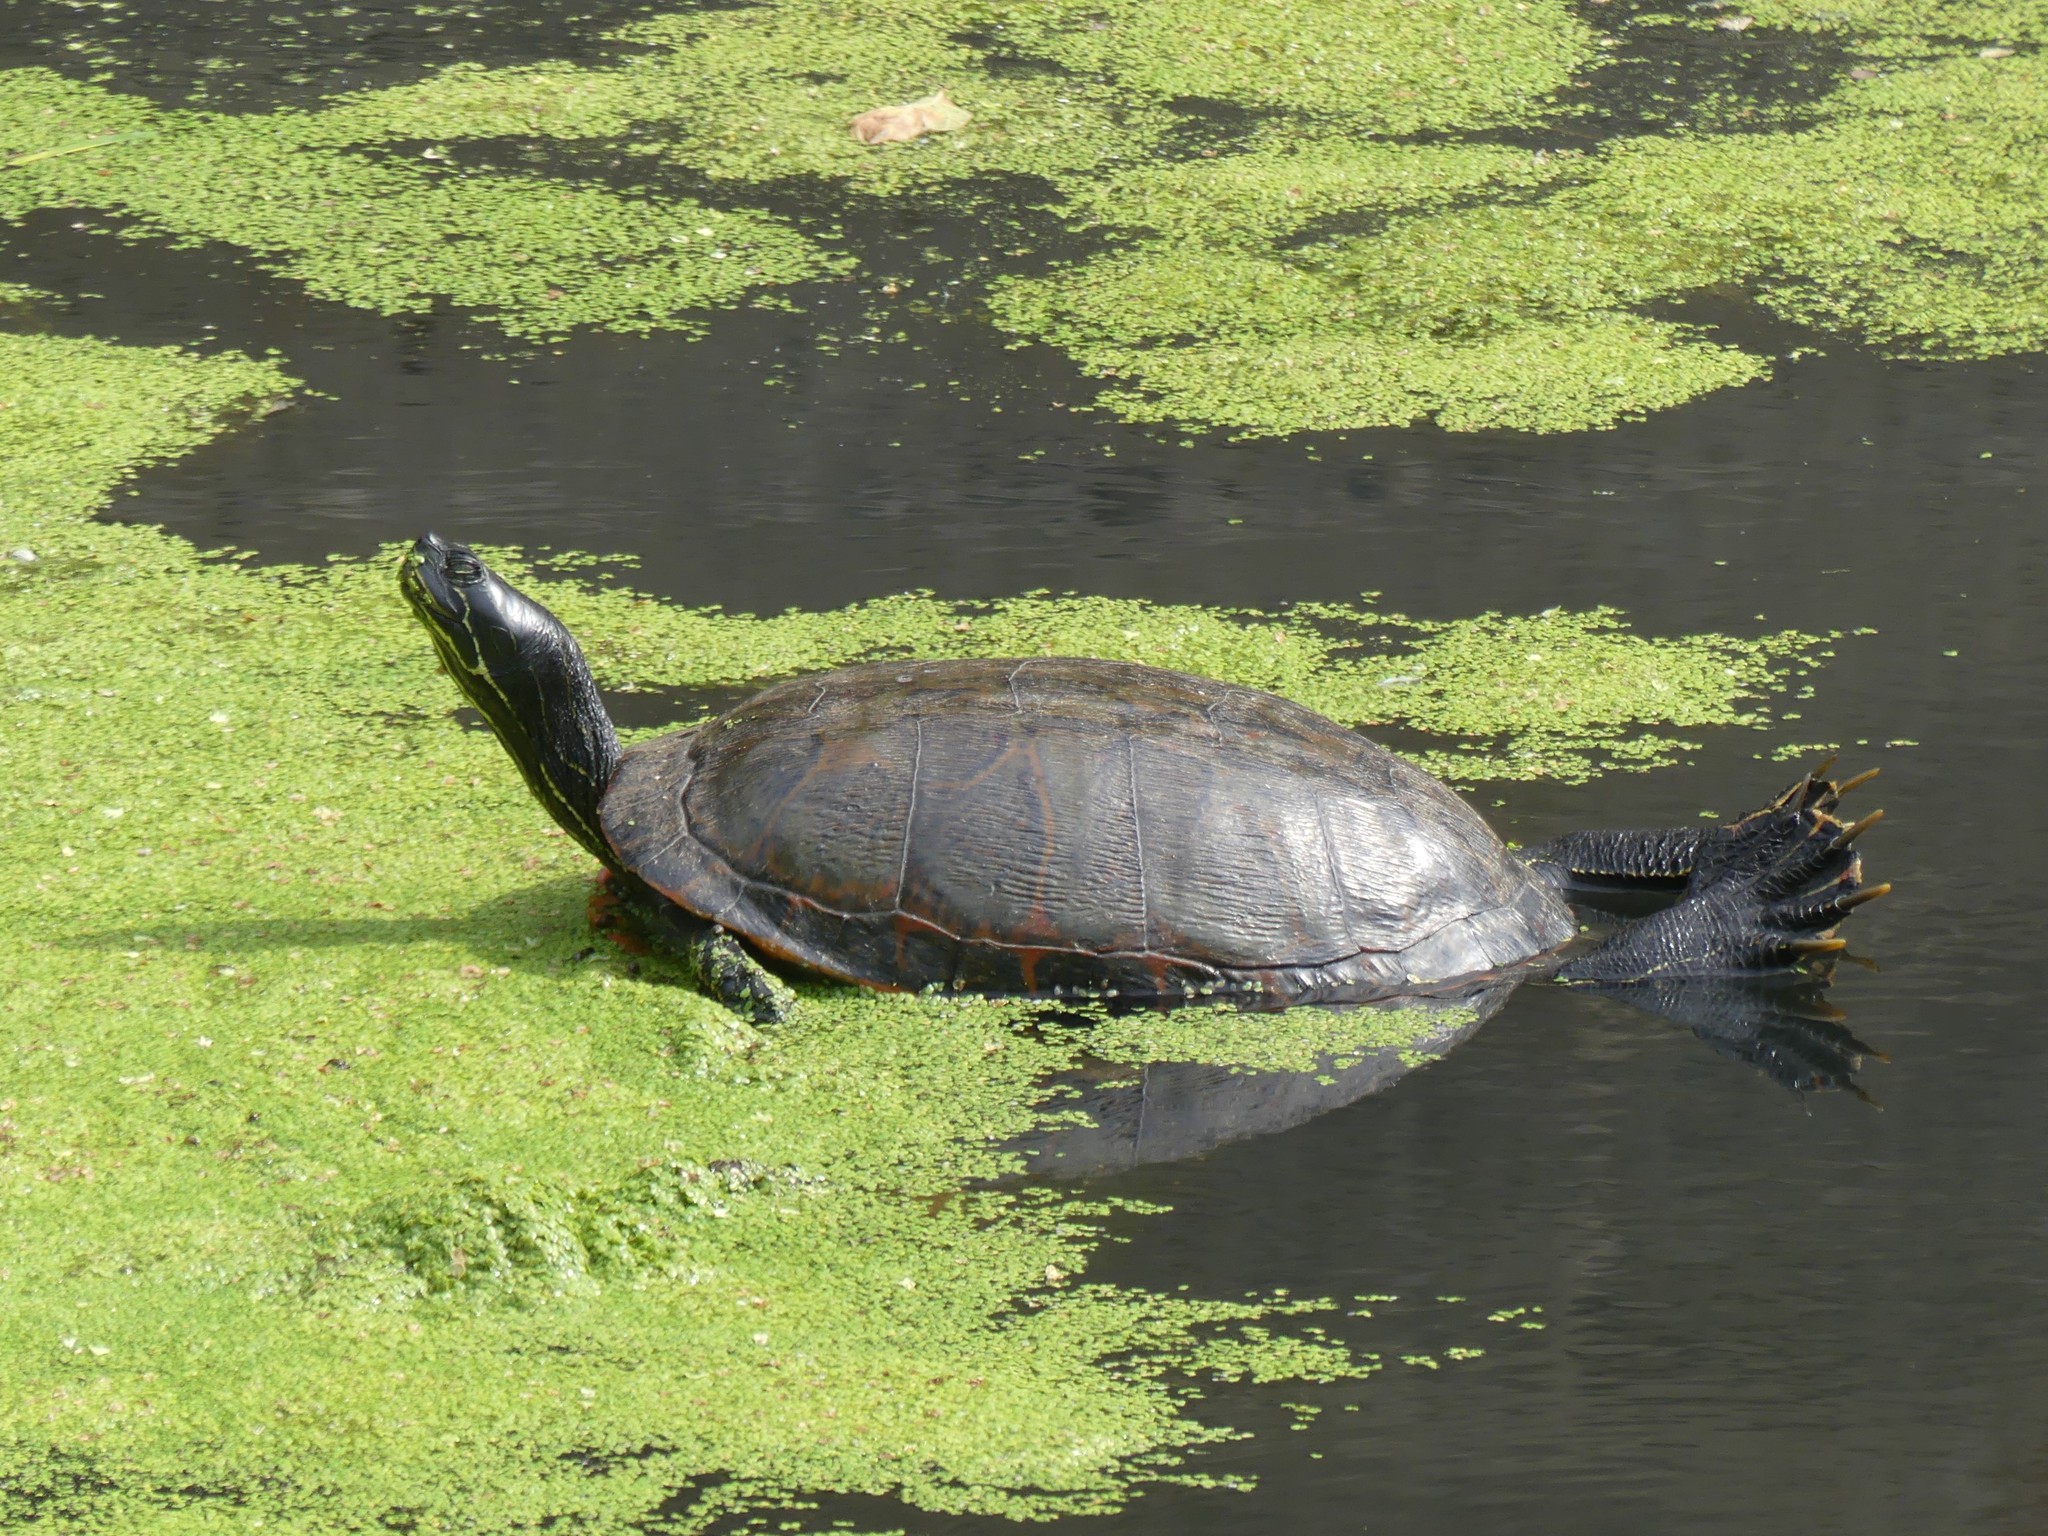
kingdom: Animalia
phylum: Chordata
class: Testudines
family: Emydidae
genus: Pseudemys
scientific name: Pseudemys rubriventris
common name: American red-bellied turtle
